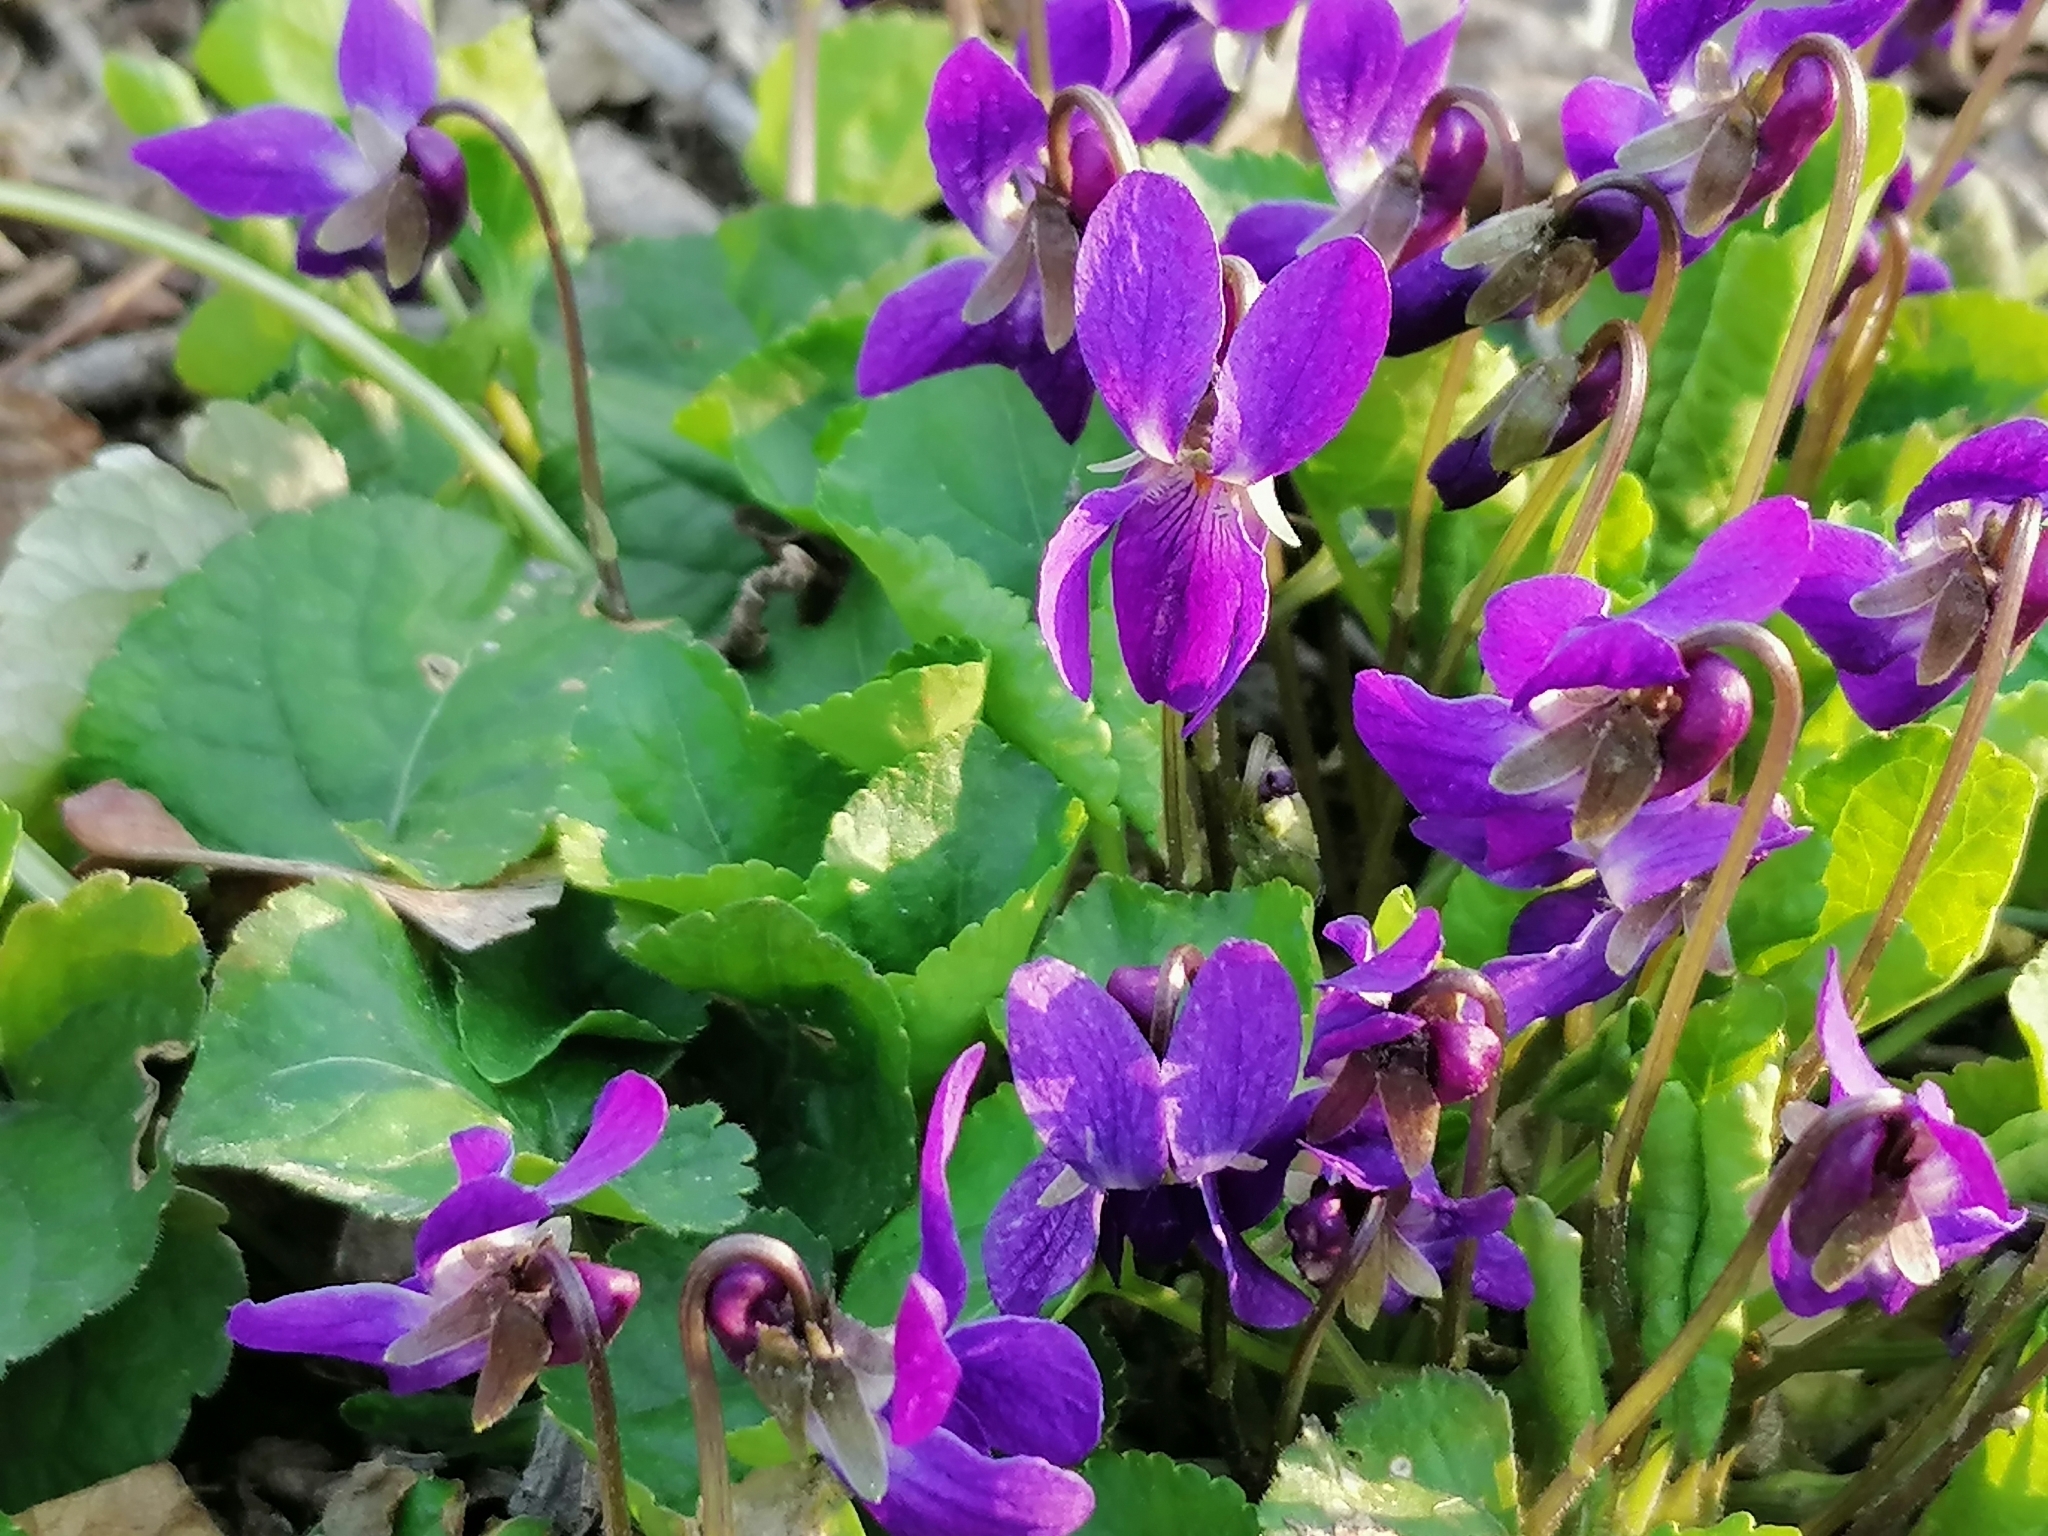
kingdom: Plantae
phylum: Tracheophyta
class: Magnoliopsida
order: Malpighiales
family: Violaceae
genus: Viola
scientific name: Viola odorata
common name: Sweet violet
